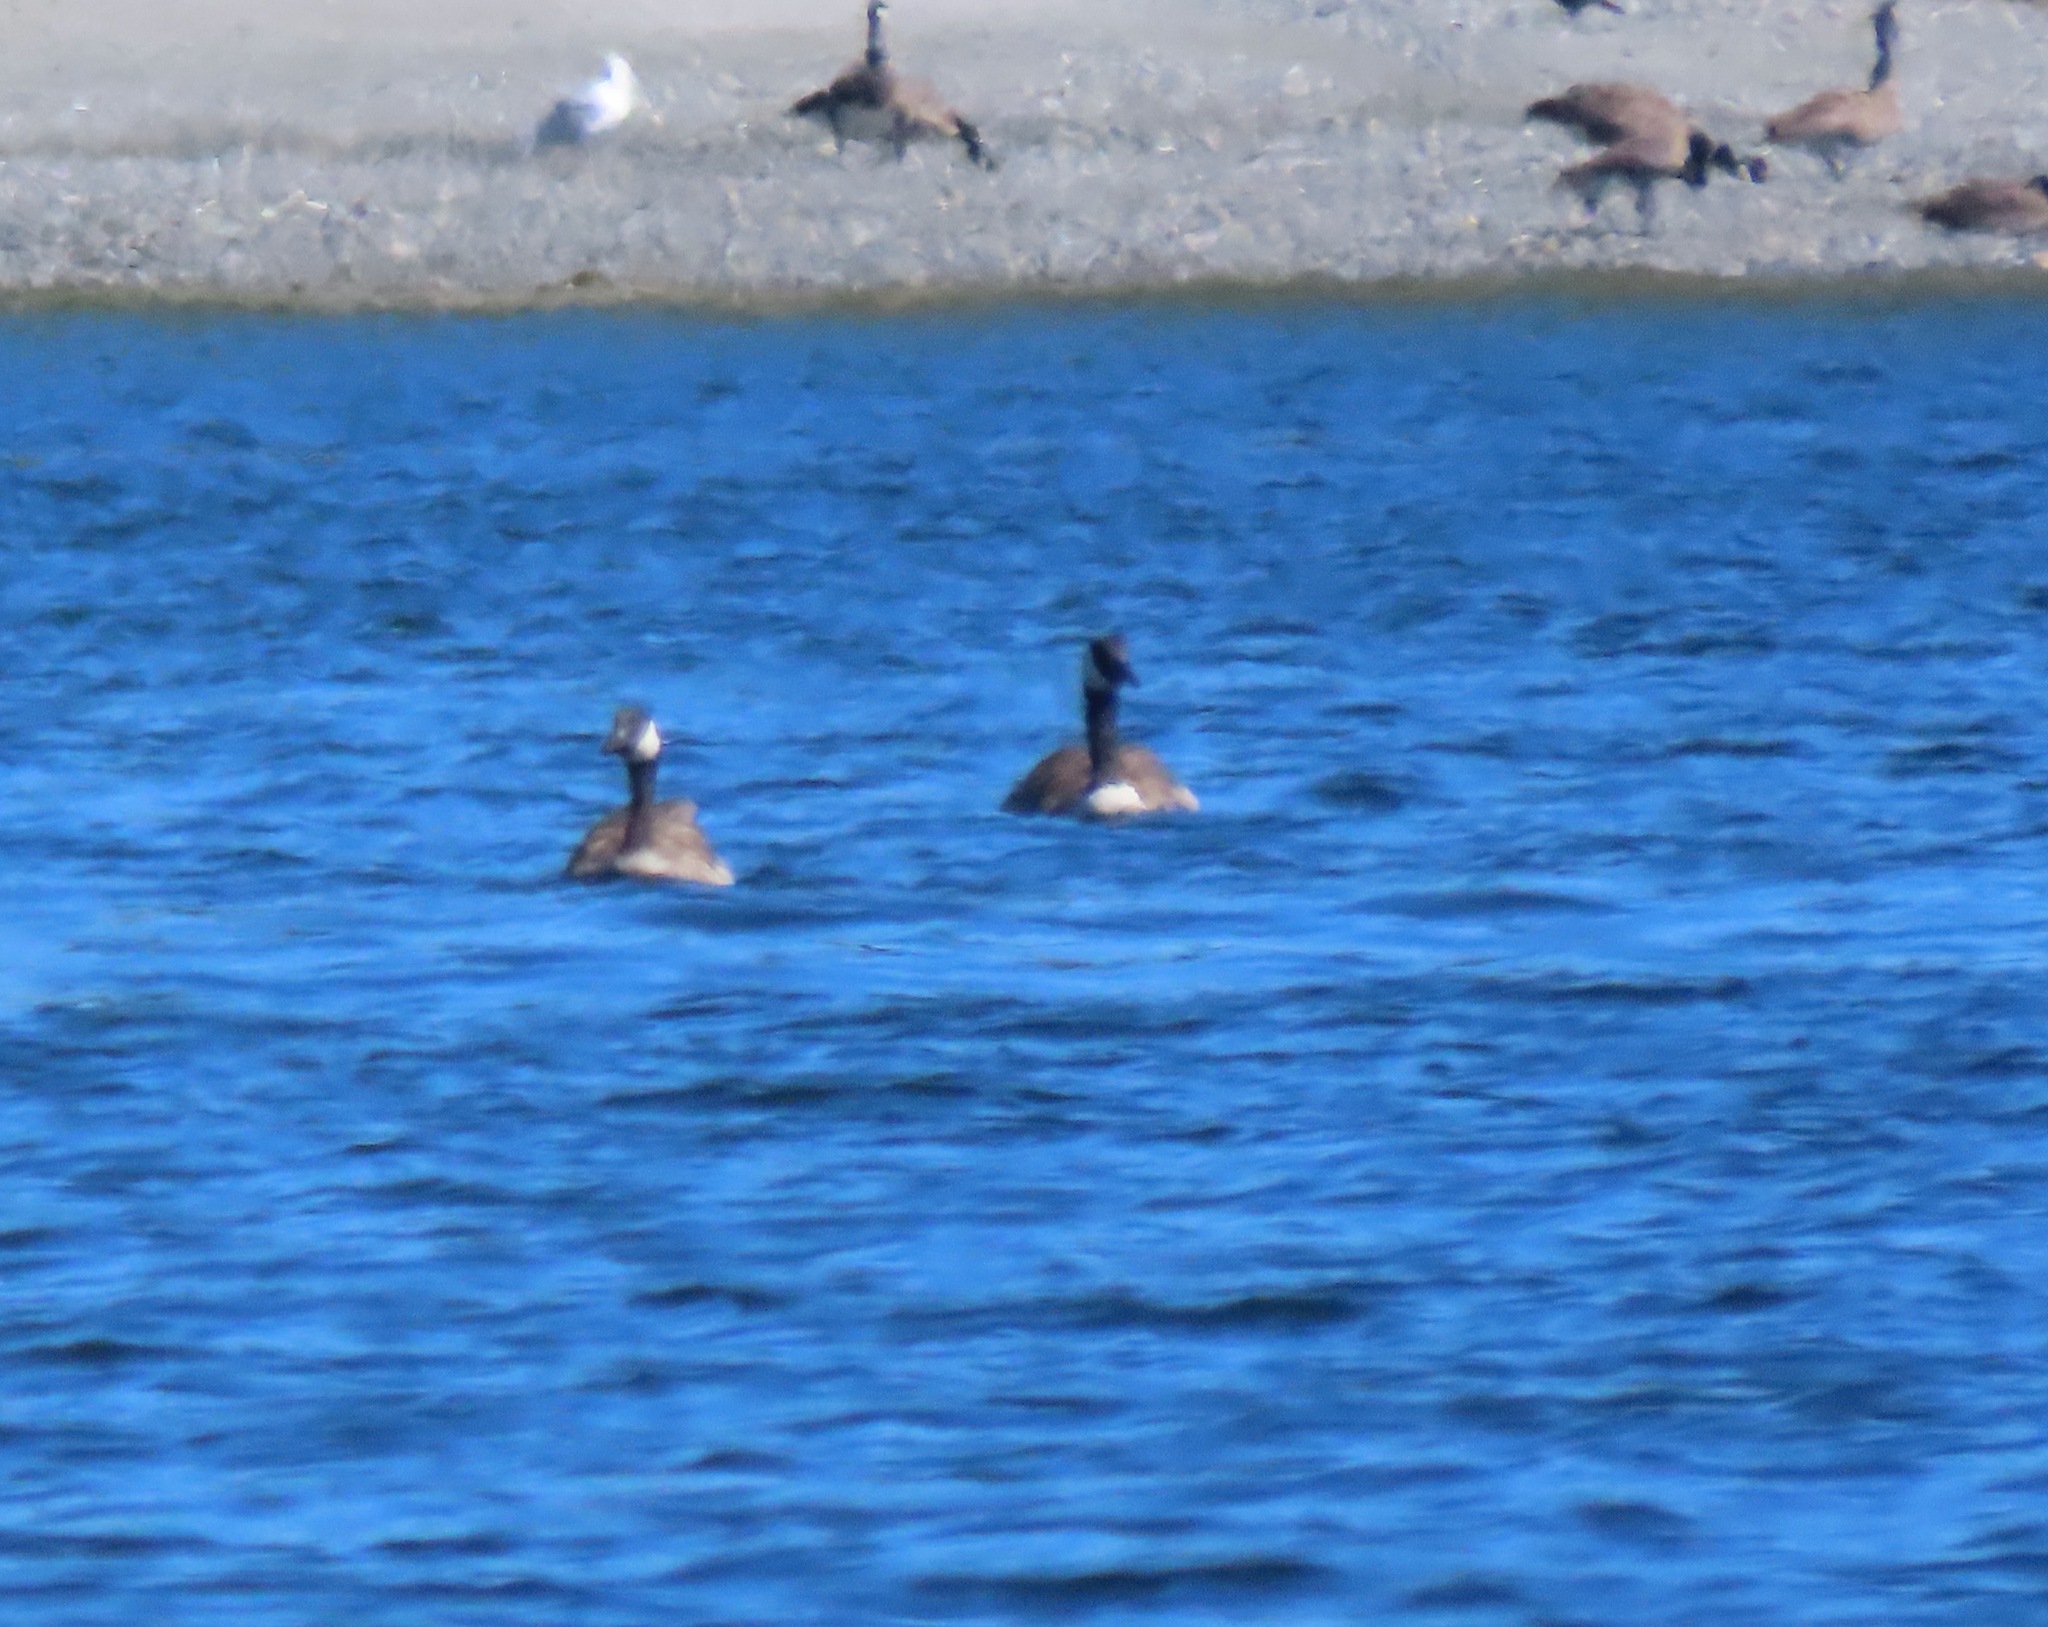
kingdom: Animalia
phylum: Chordata
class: Aves
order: Anseriformes
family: Anatidae
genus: Branta
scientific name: Branta canadensis
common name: Canada goose
